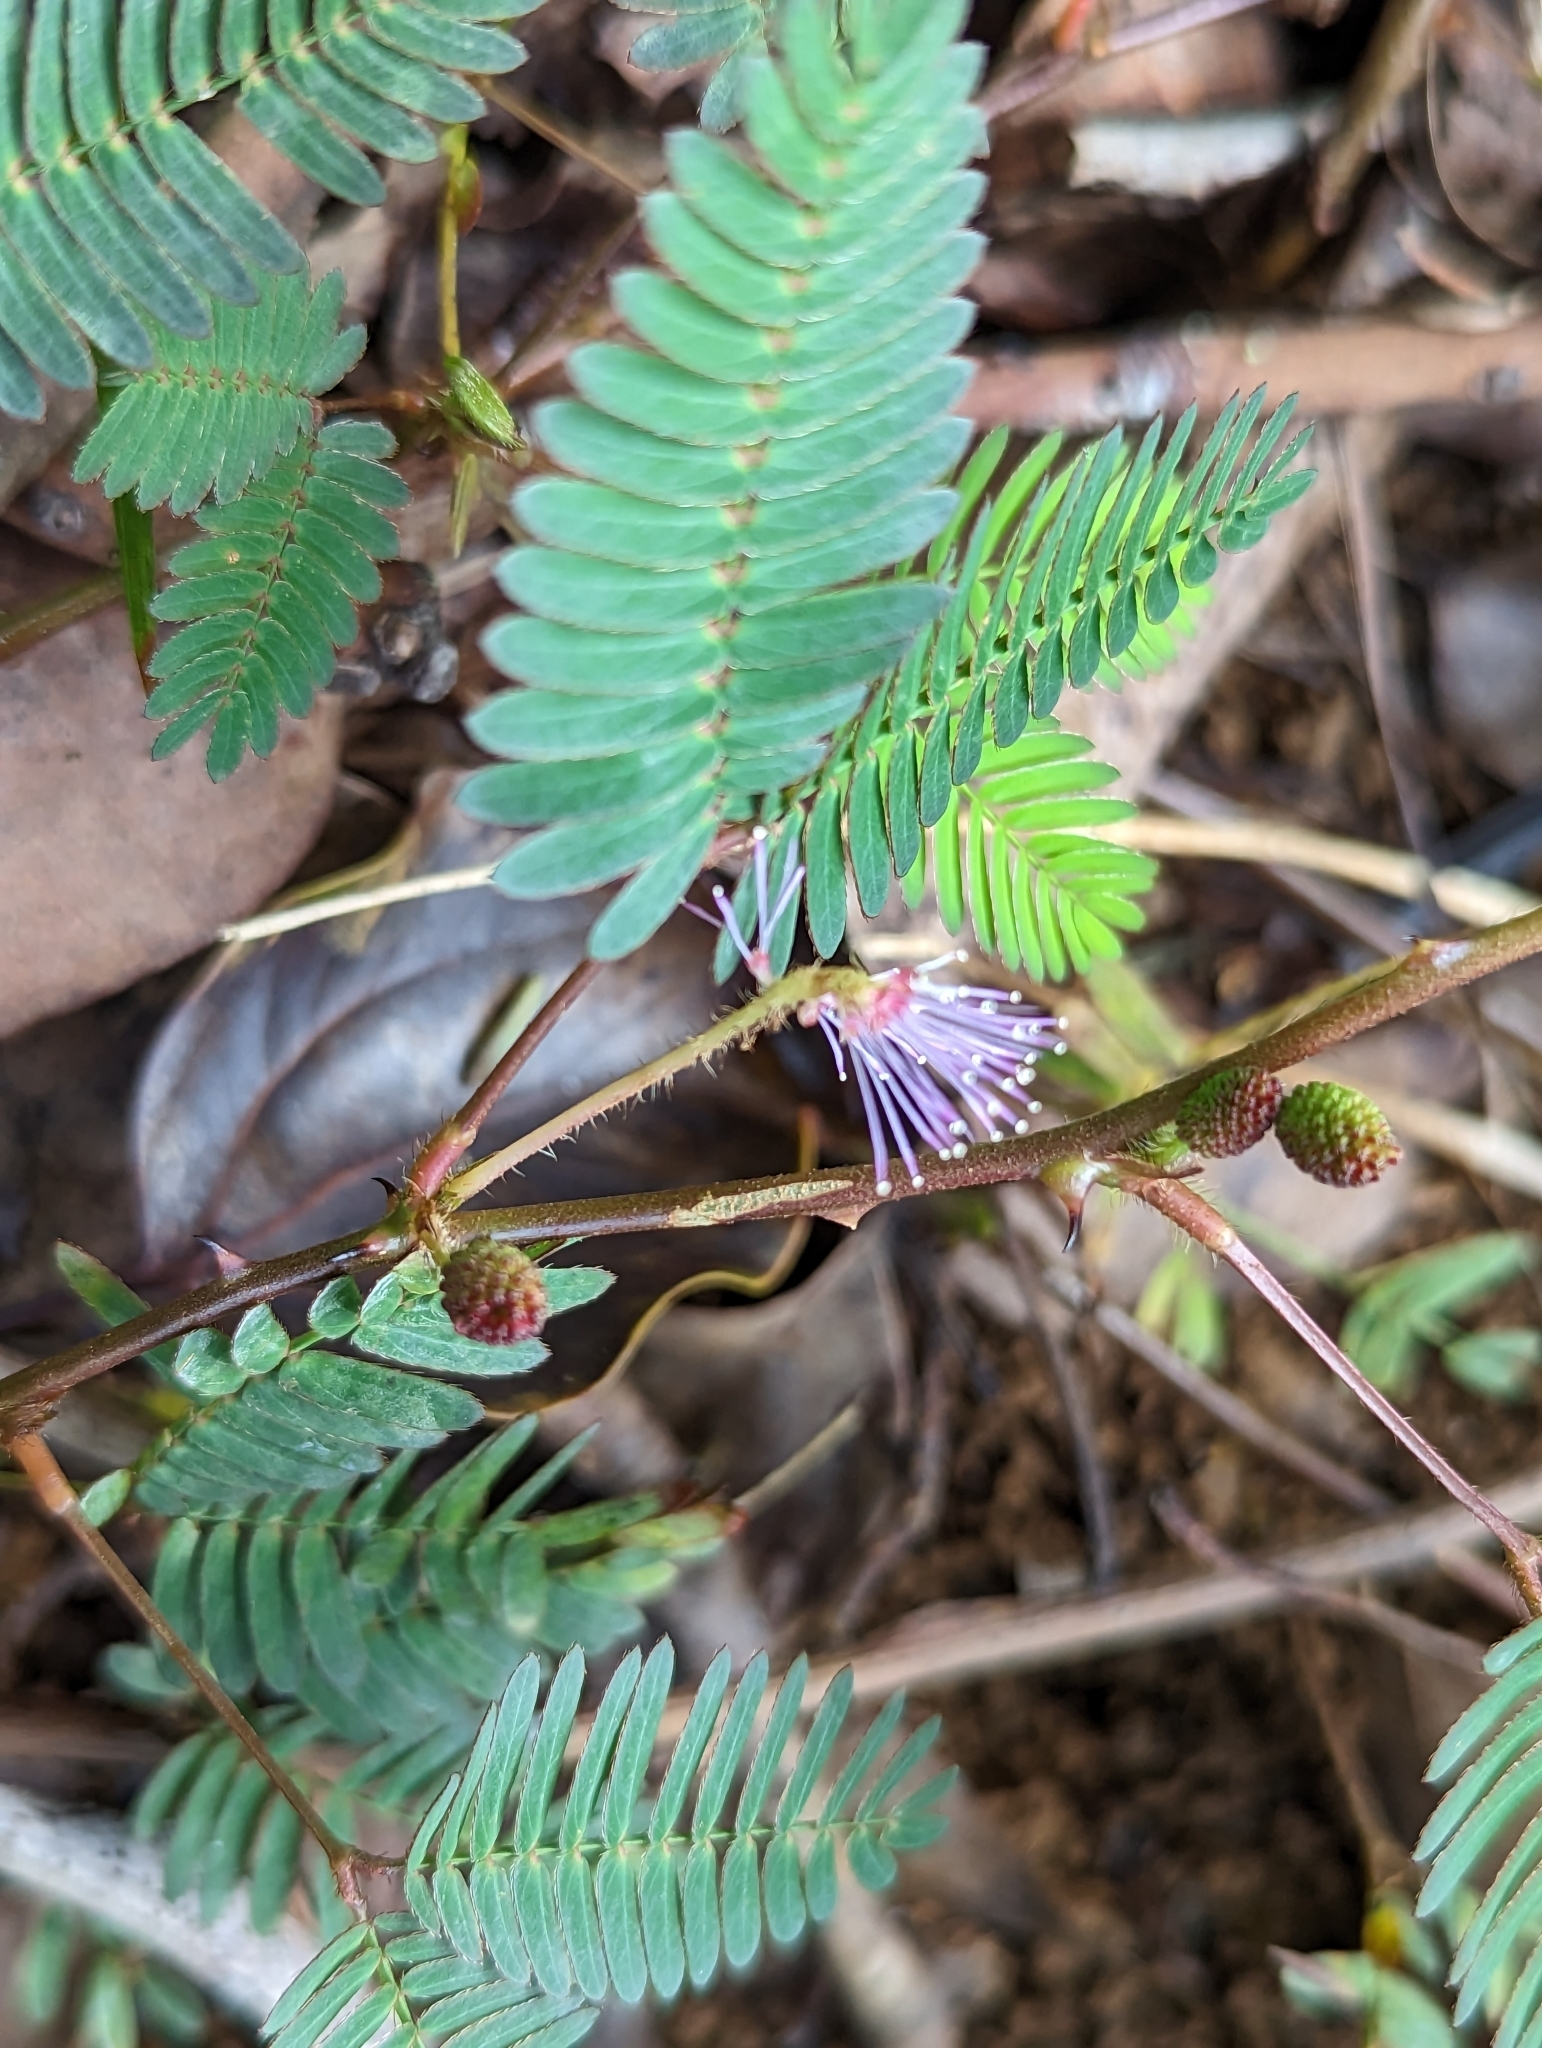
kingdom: Plantae
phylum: Tracheophyta
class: Magnoliopsida
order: Fabales
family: Fabaceae
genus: Mimosa
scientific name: Mimosa pudica
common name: Sensitive plant
